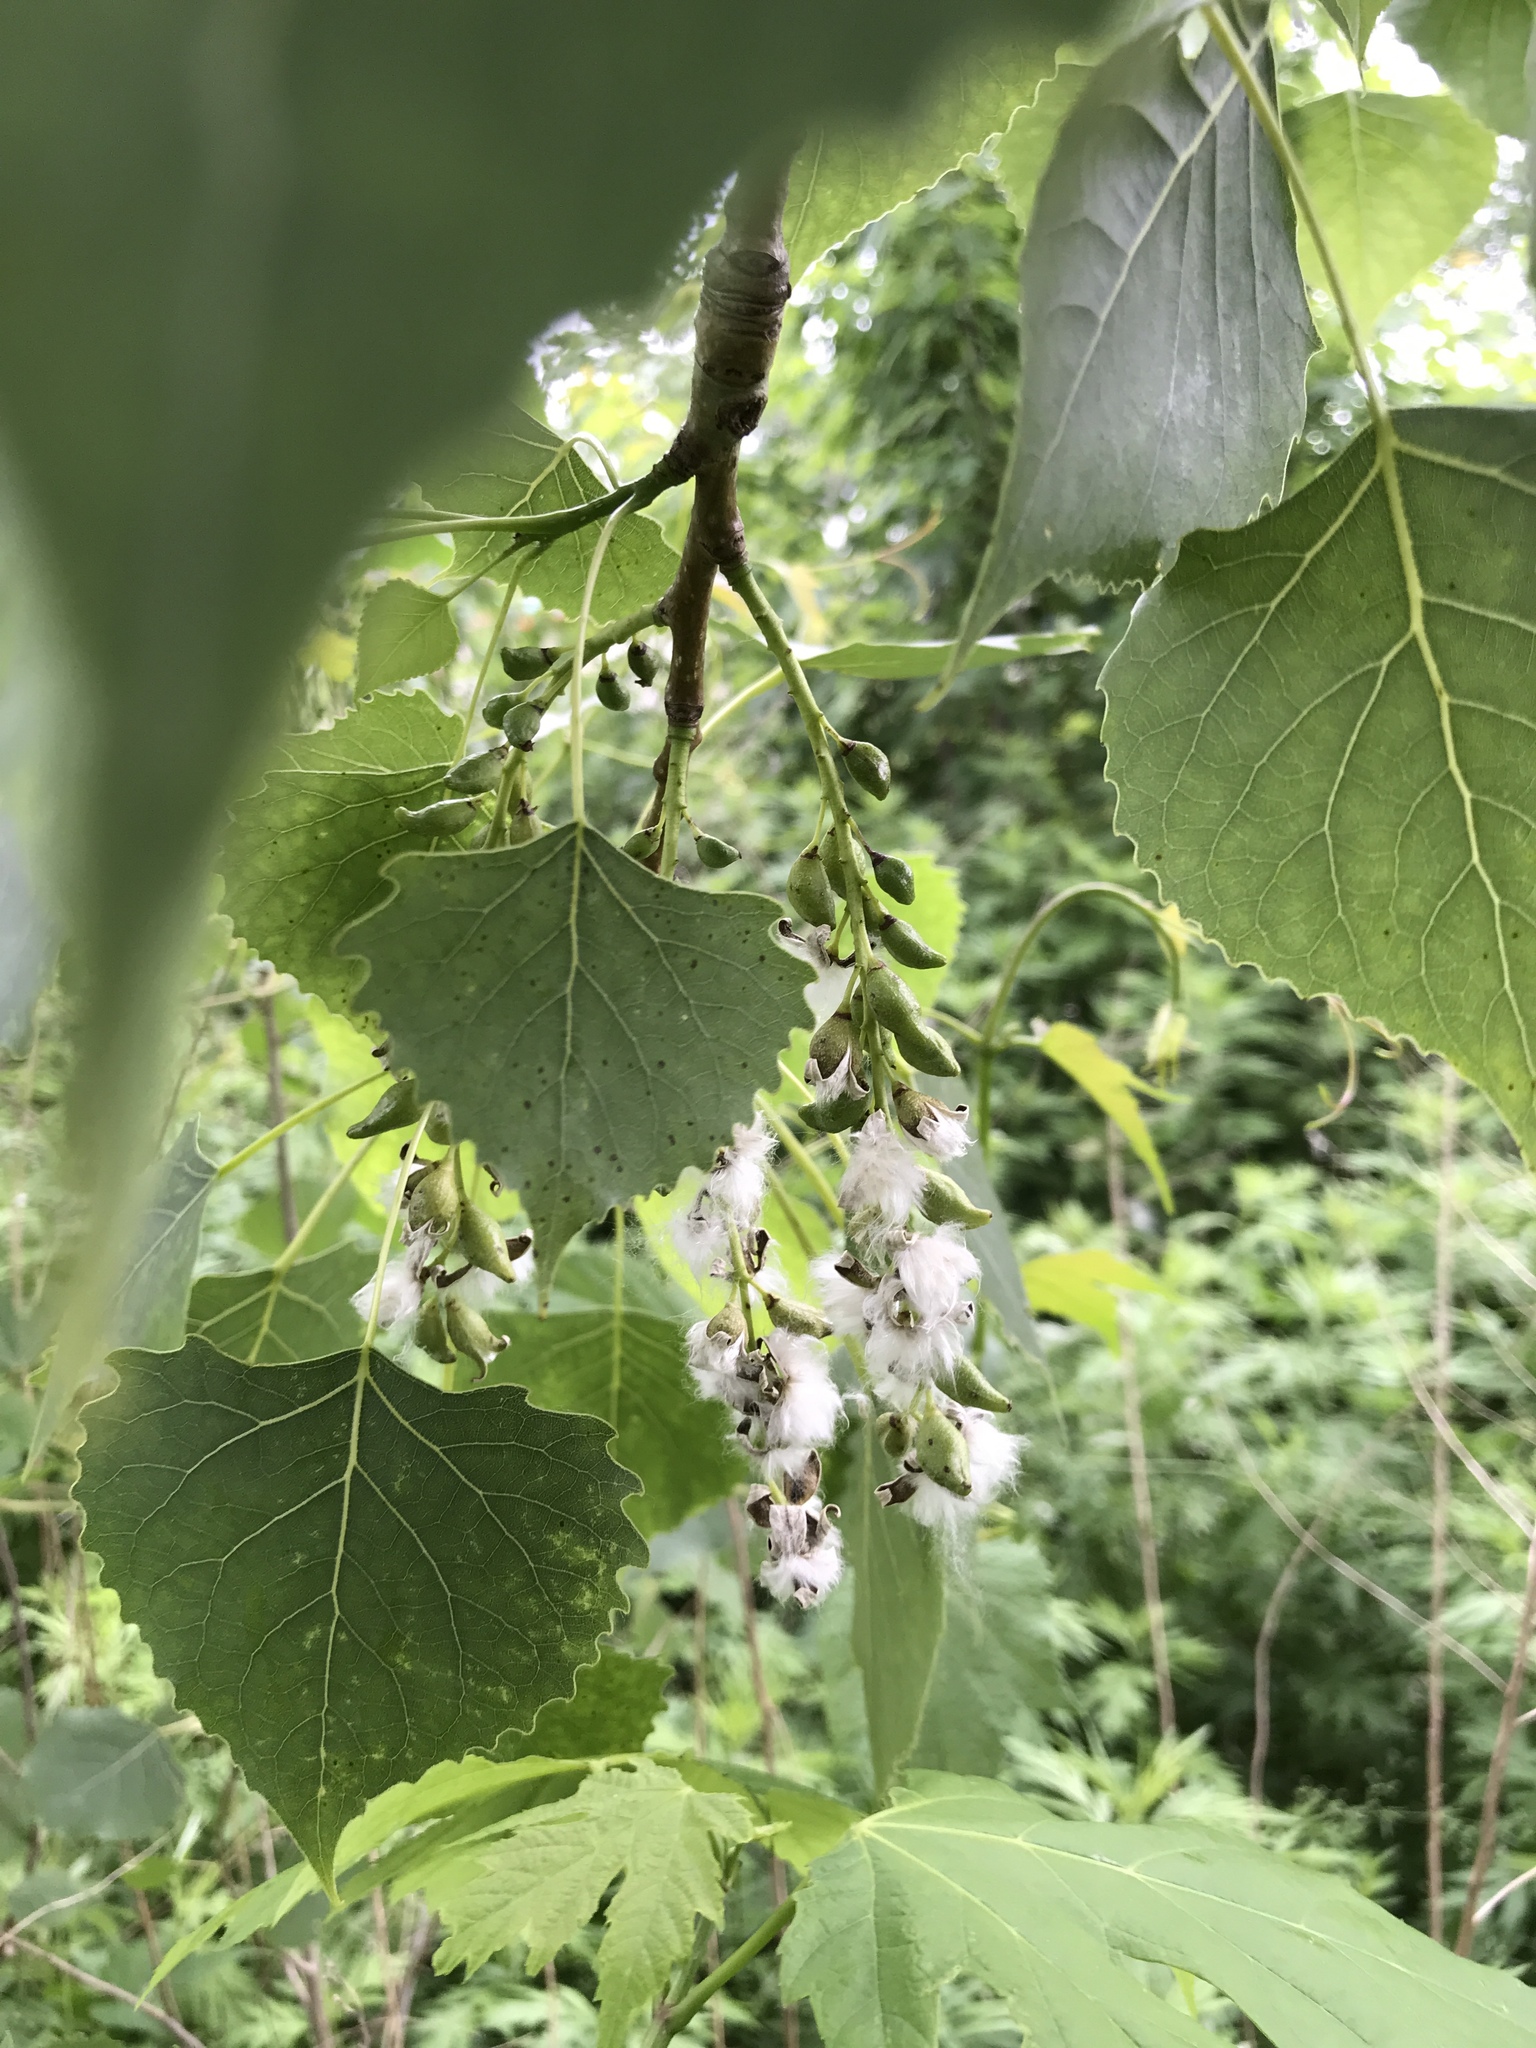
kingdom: Plantae
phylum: Tracheophyta
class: Magnoliopsida
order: Malpighiales
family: Salicaceae
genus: Populus
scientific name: Populus deltoides
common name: Eastern cottonwood
